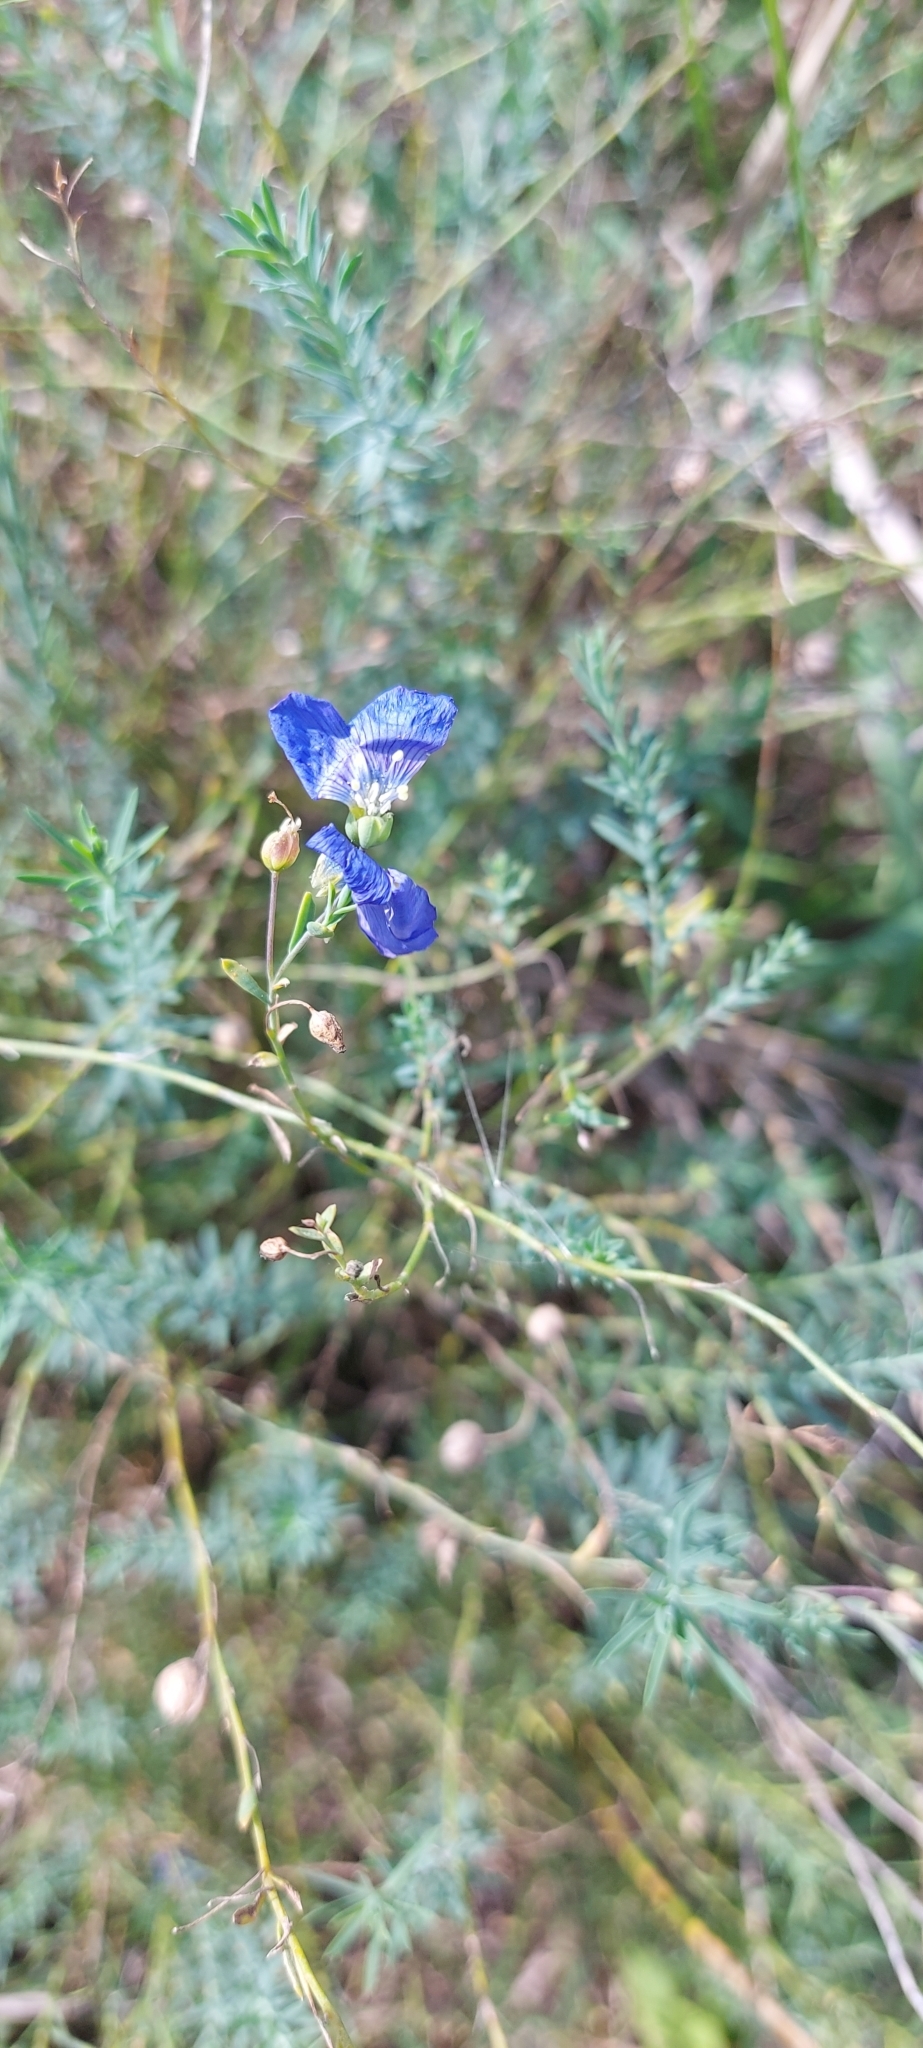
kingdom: Plantae
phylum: Tracheophyta
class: Magnoliopsida
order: Malpighiales
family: Linaceae
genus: Linum
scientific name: Linum perenne
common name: Blue flax
